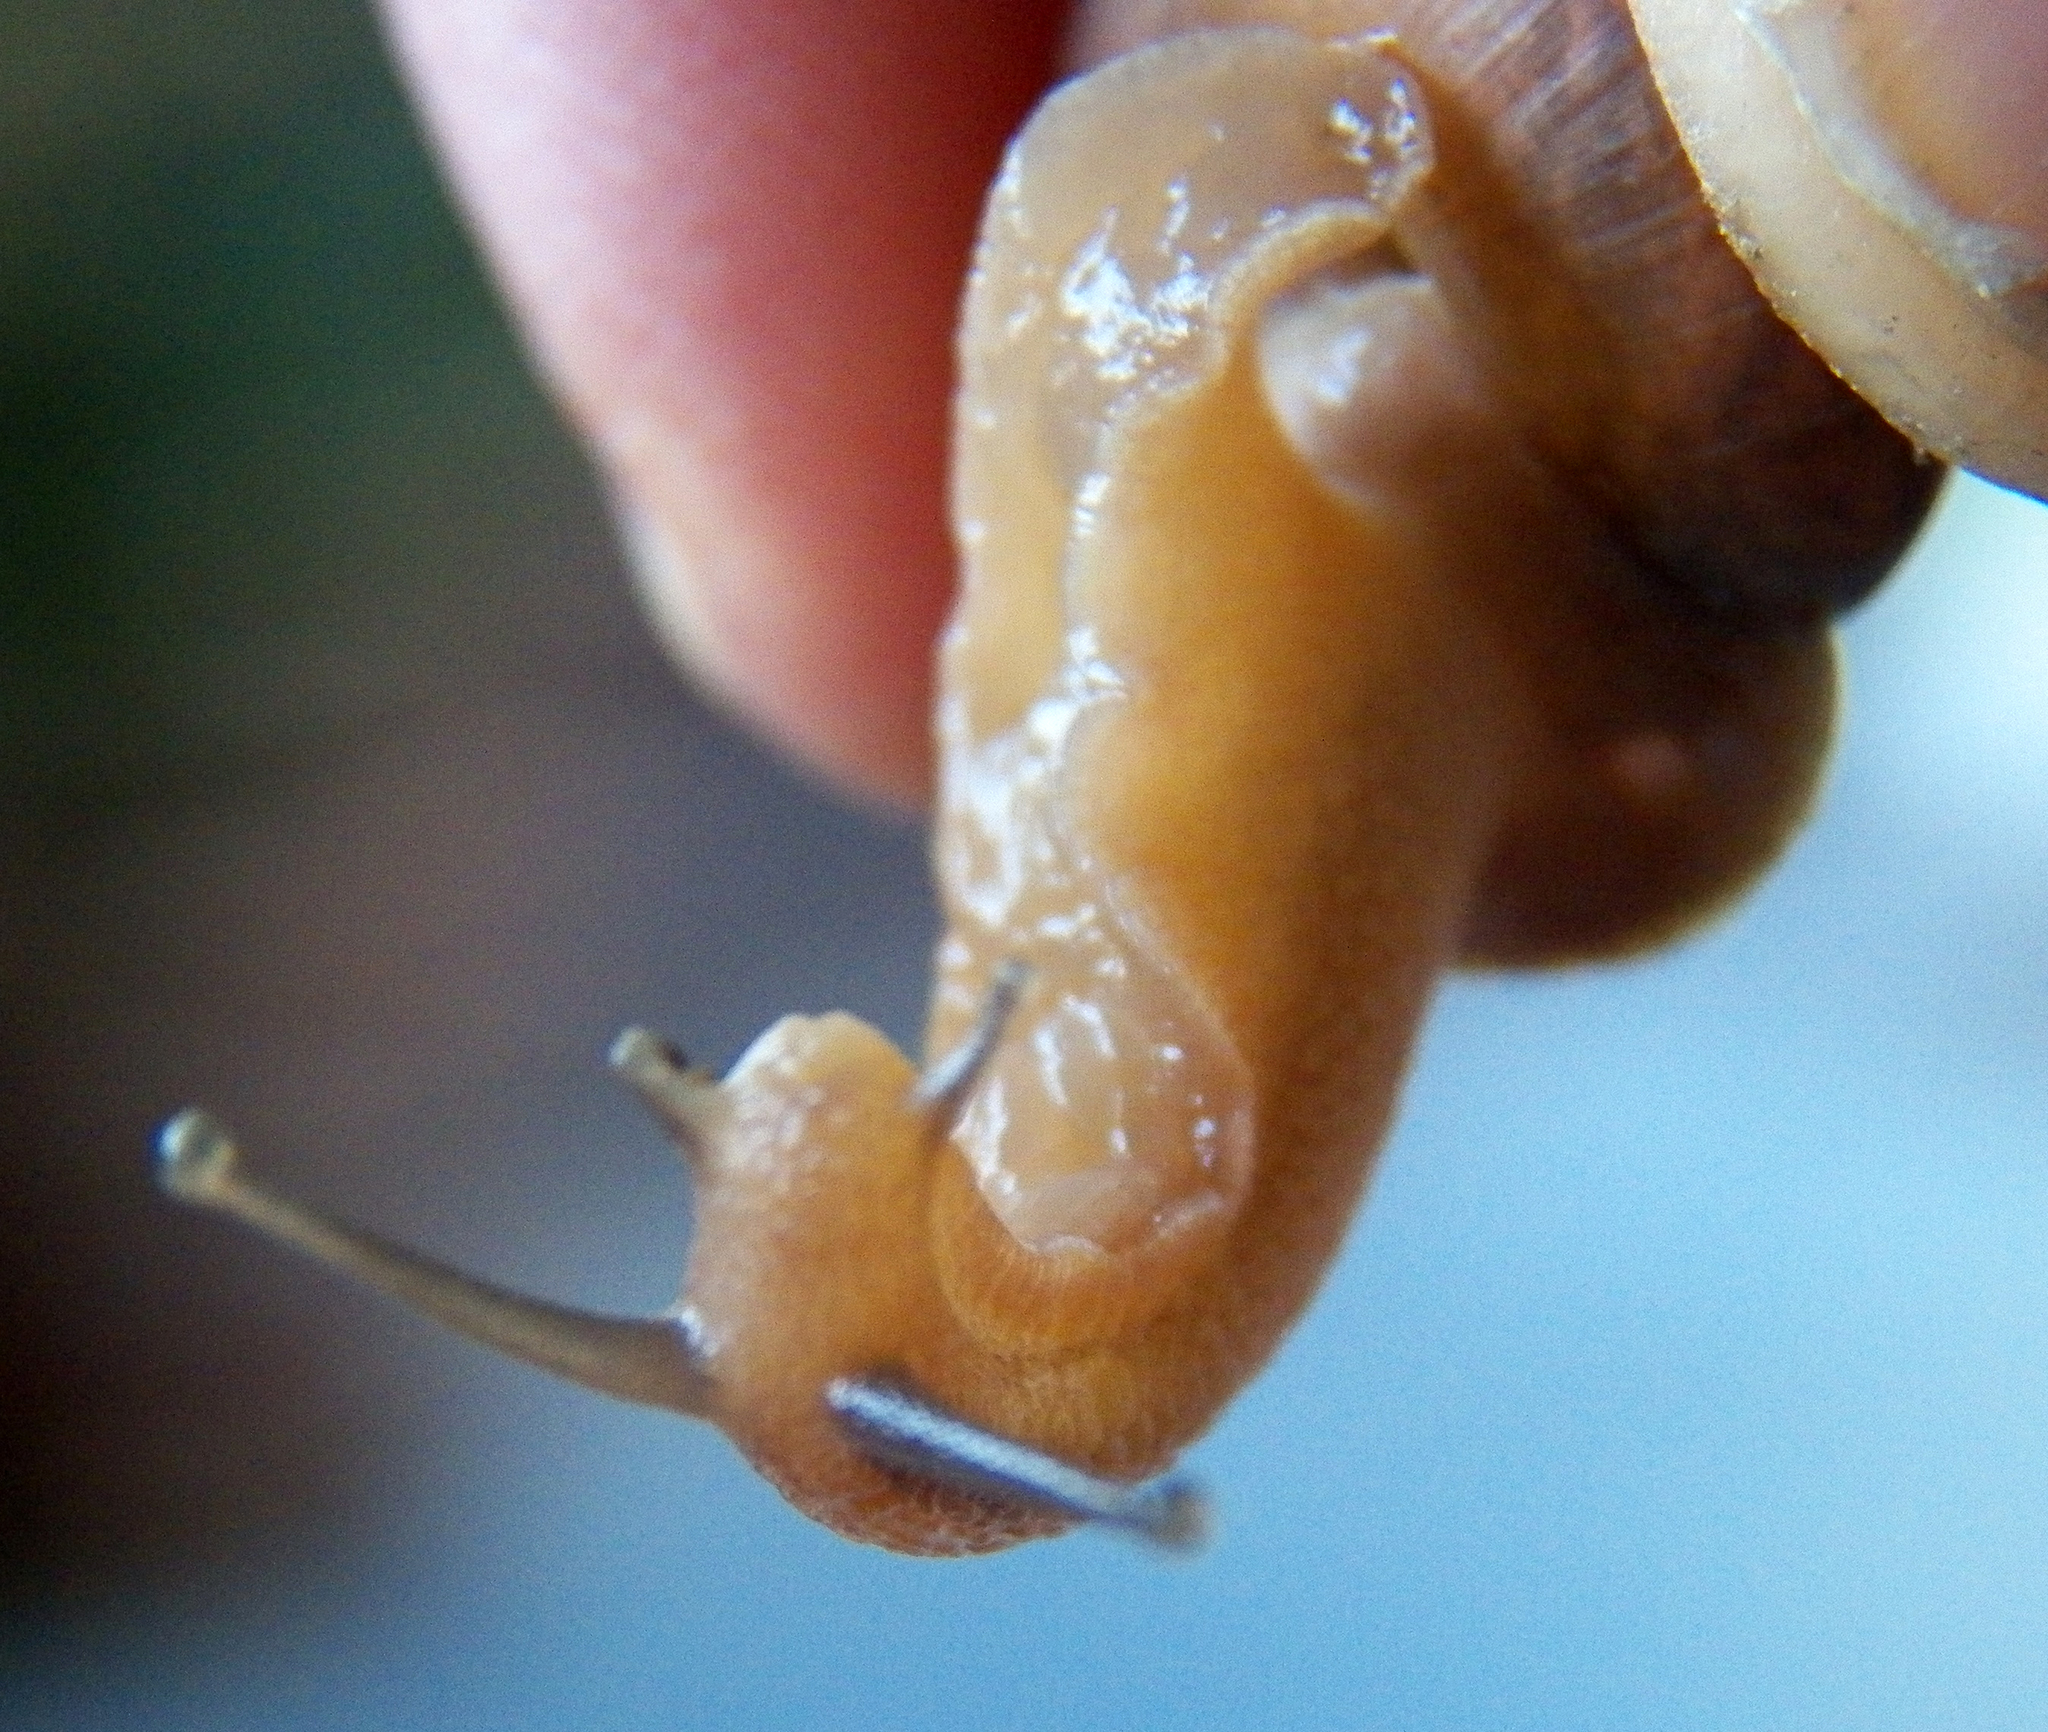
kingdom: Animalia
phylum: Mollusca
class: Gastropoda
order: Stylommatophora
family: Camaenidae
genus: Bradybaena
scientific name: Bradybaena similaris
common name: Asian trampsnail
